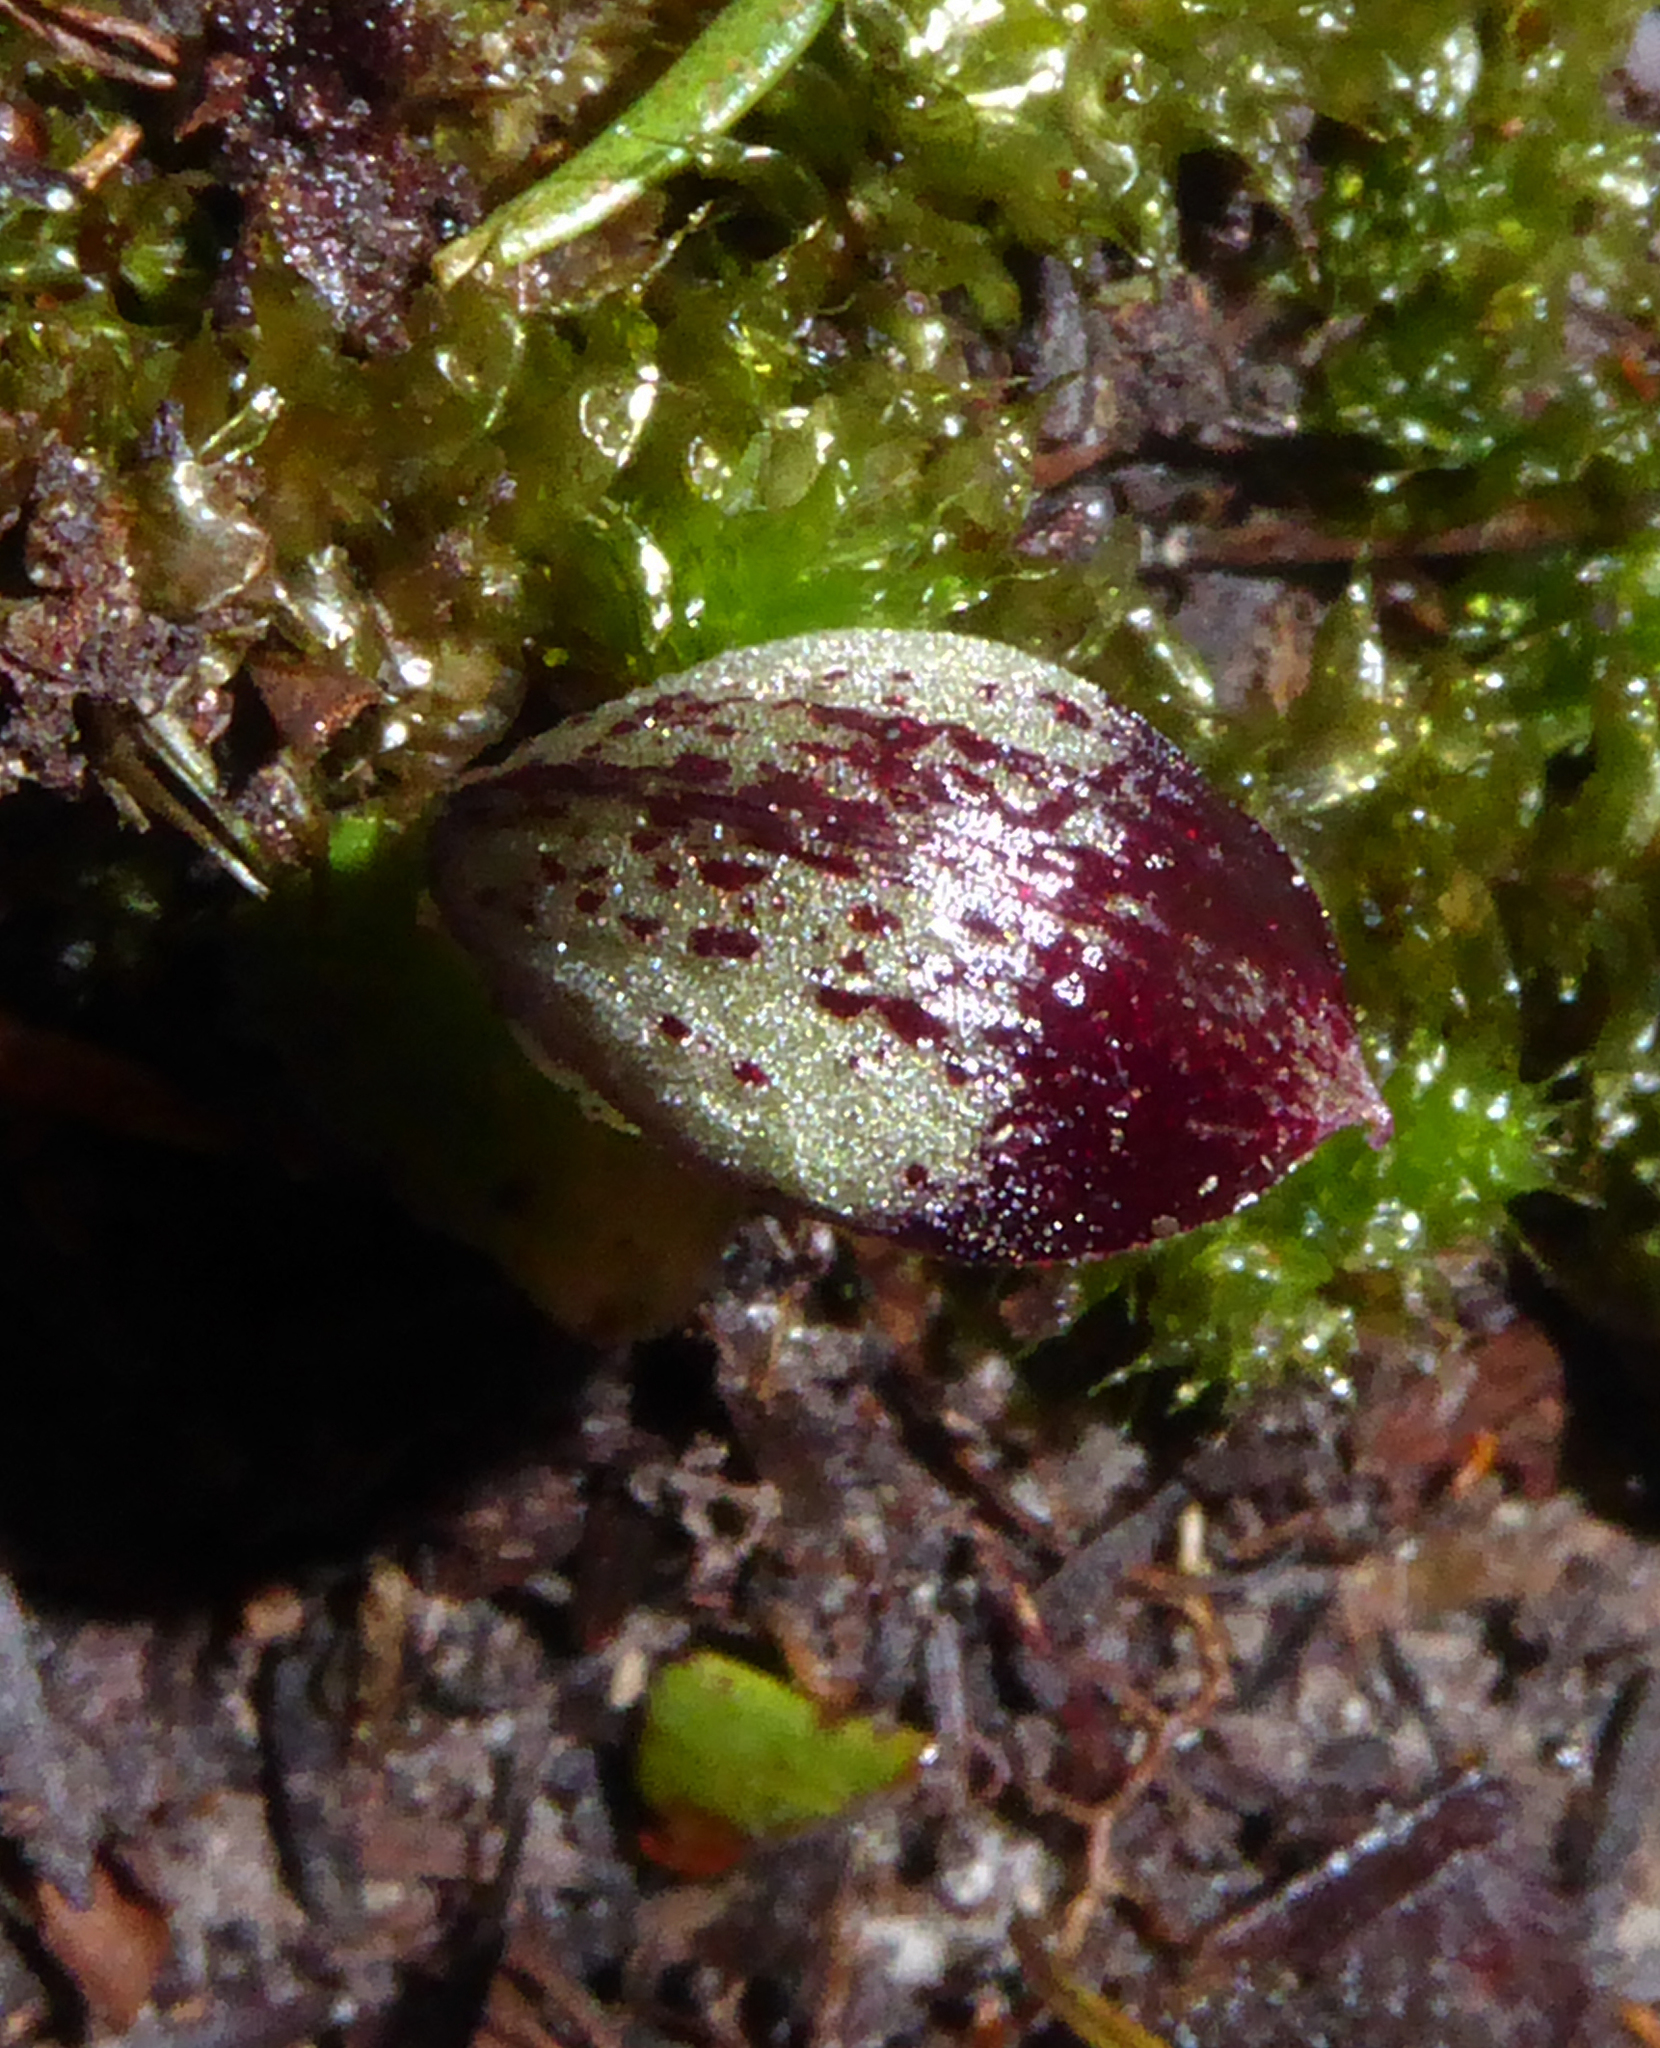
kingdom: Plantae
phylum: Tracheophyta
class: Liliopsida
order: Asparagales
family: Orchidaceae
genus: Corybas
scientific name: Corybas cheesemanii
